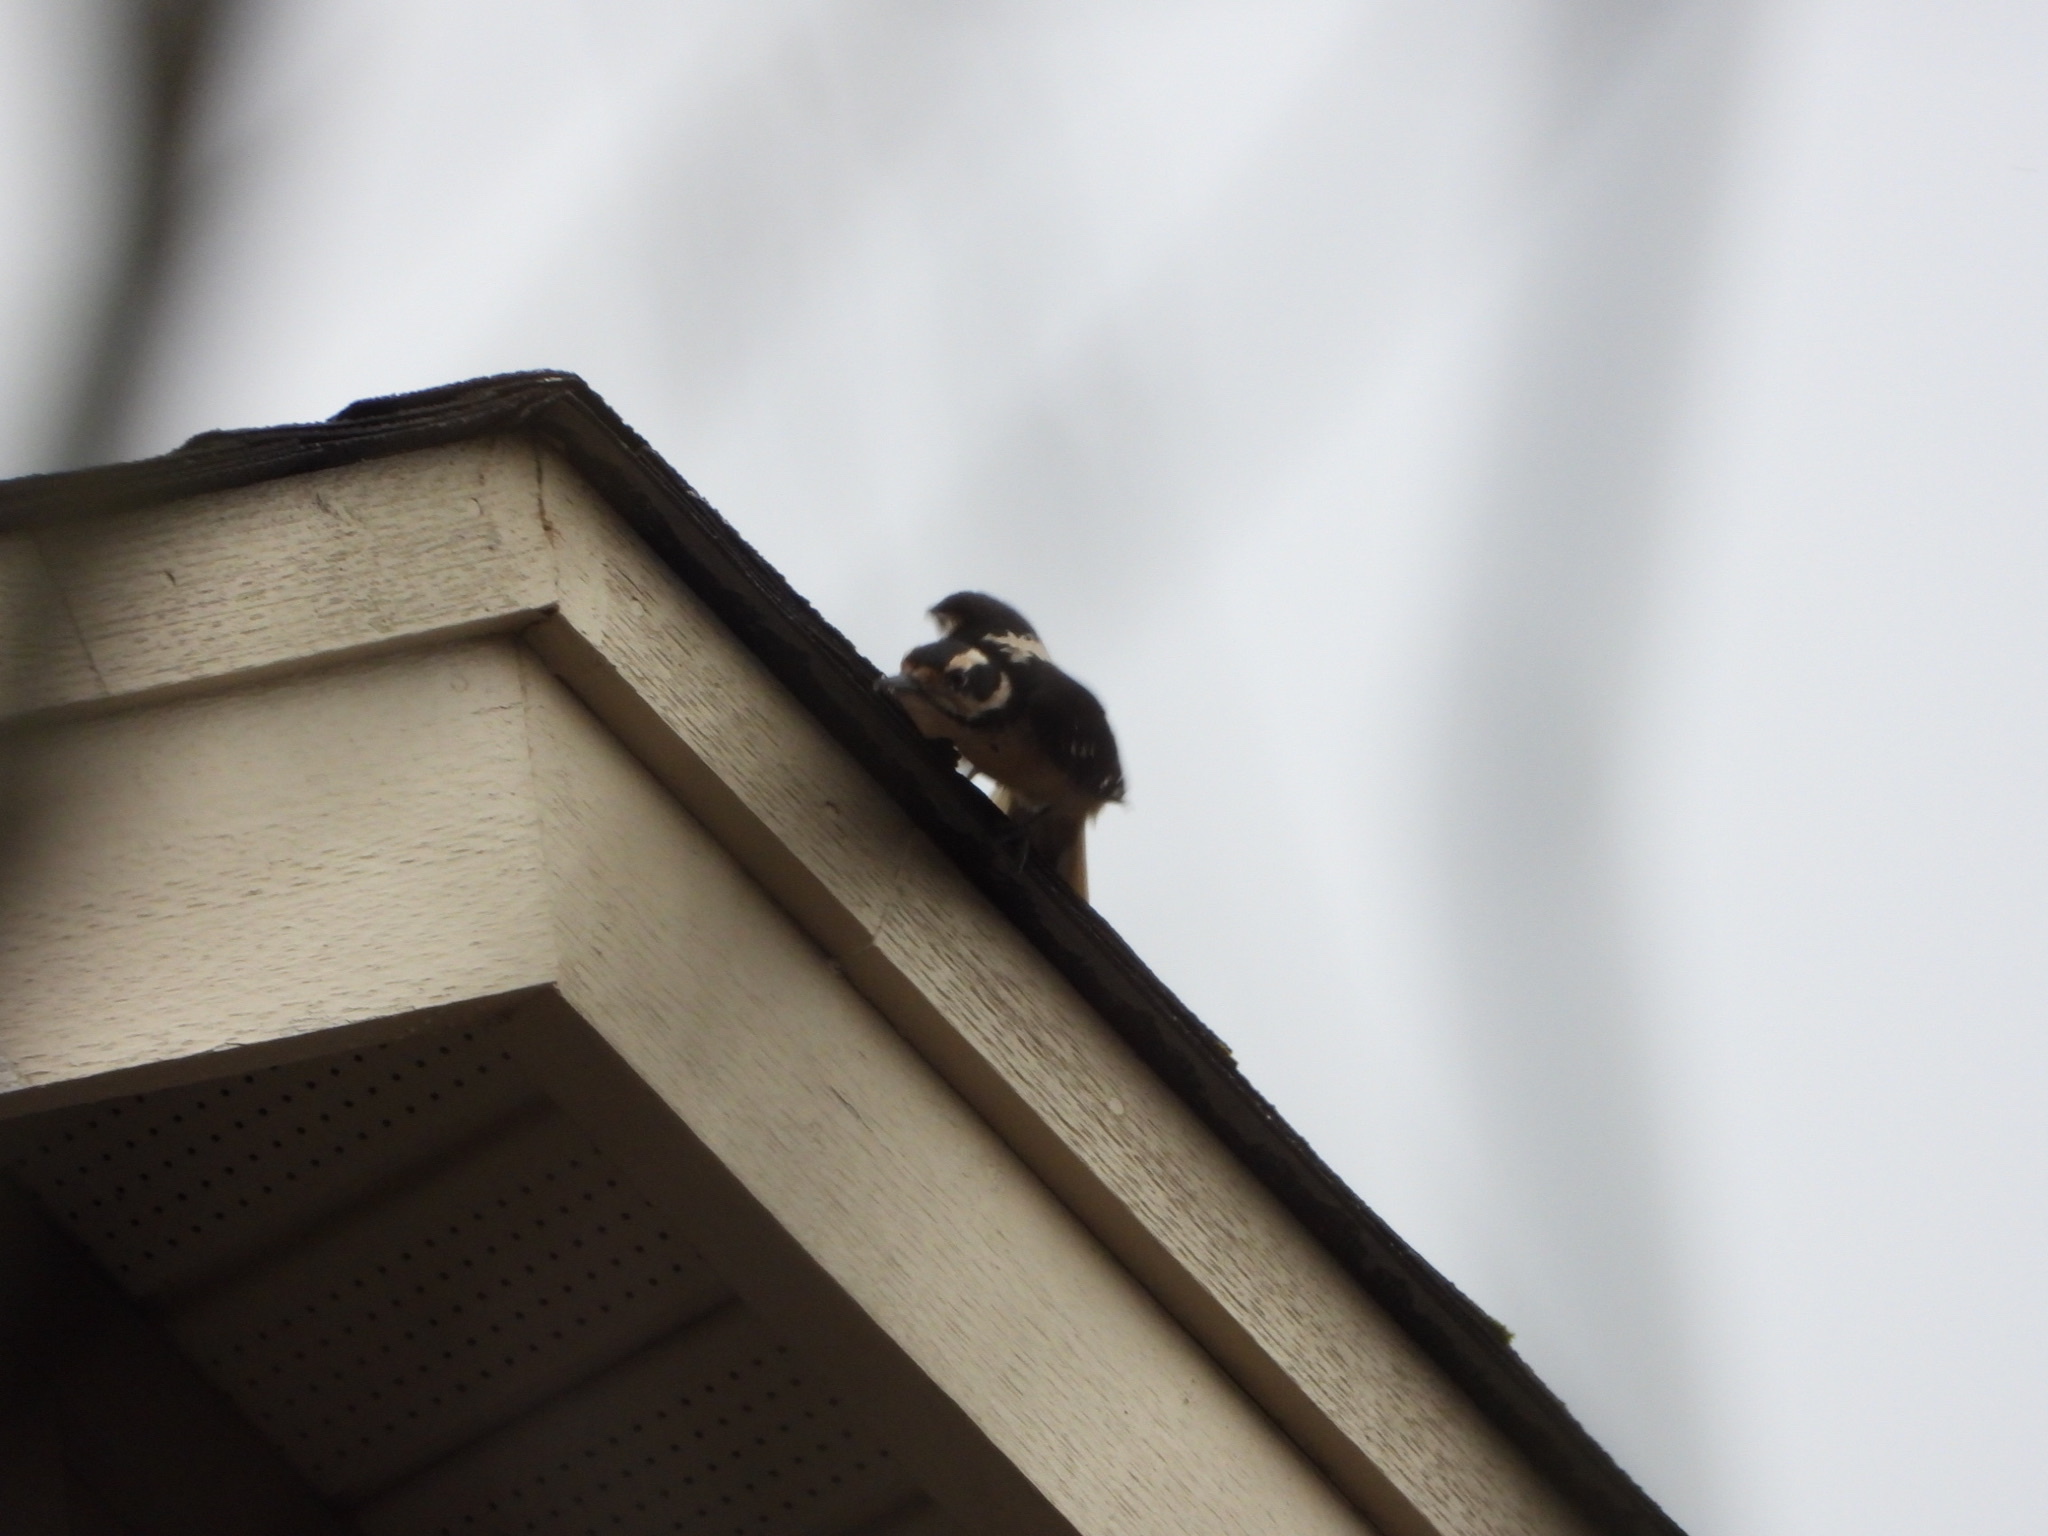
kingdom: Animalia
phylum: Chordata
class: Aves
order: Piciformes
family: Picidae
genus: Leuconotopicus
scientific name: Leuconotopicus villosus
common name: Hairy woodpecker
